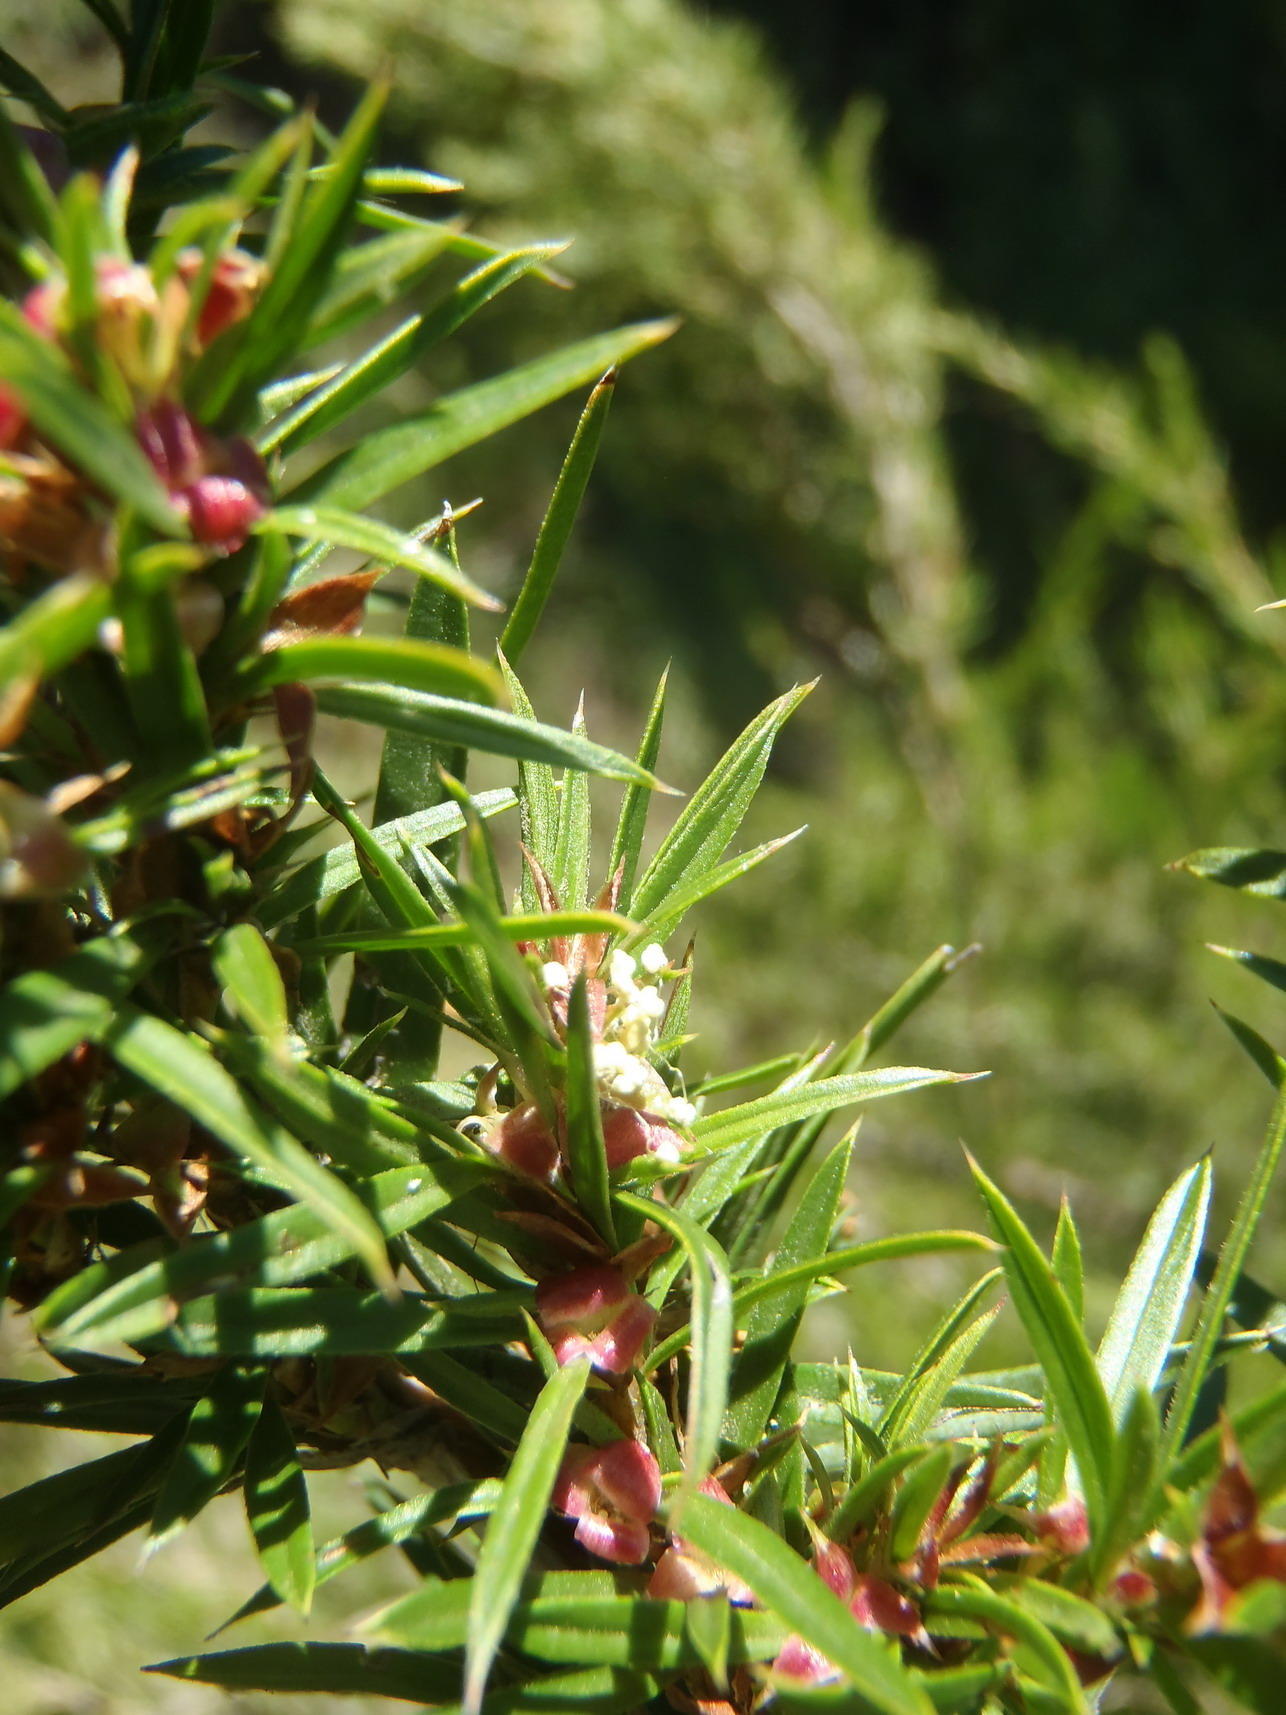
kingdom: Plantae
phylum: Tracheophyta
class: Magnoliopsida
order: Rosales
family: Rosaceae
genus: Cliffortia
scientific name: Cliffortia strobilifera
